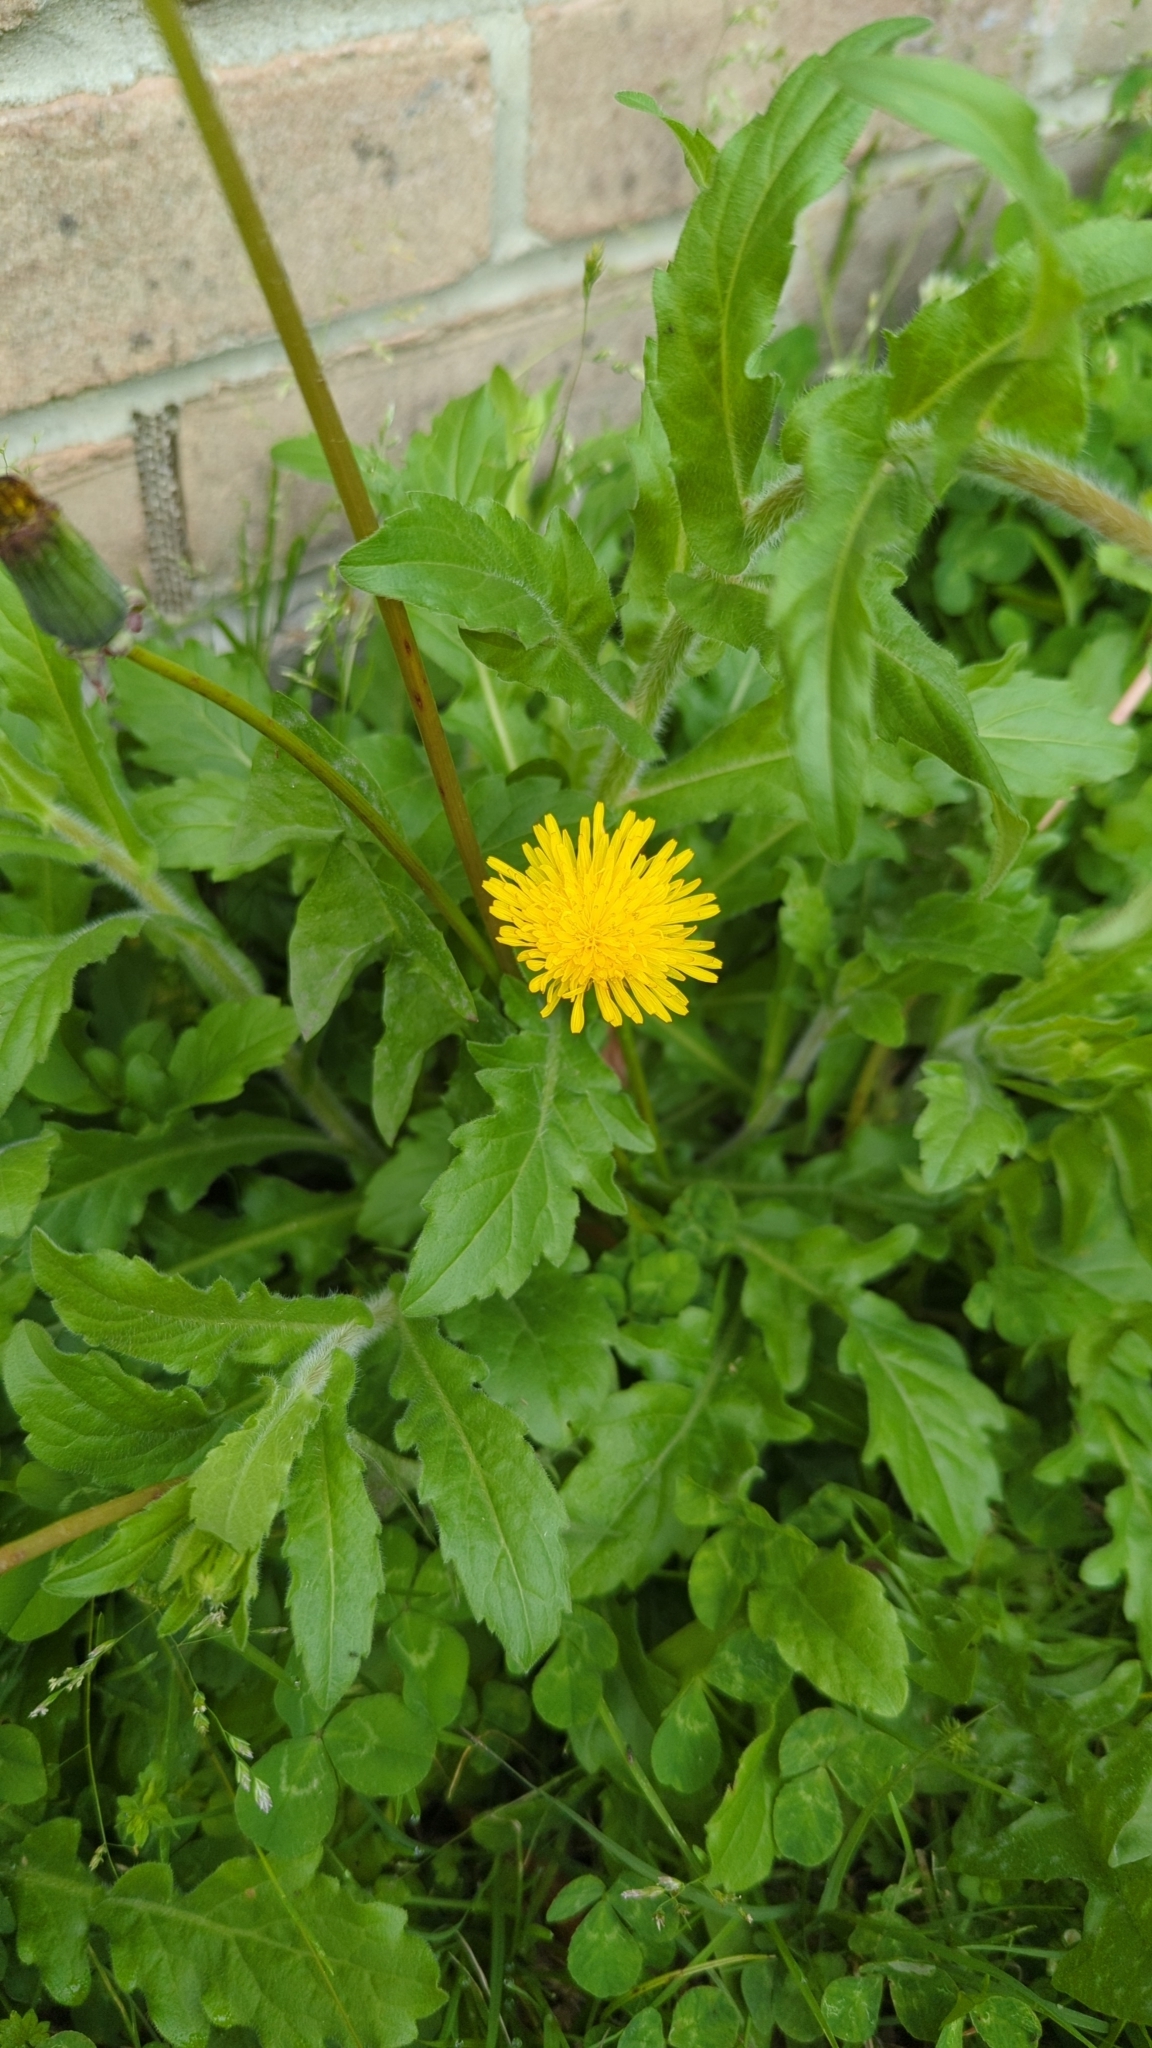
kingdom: Plantae
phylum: Tracheophyta
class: Magnoliopsida
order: Asterales
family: Asteraceae
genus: Taraxacum
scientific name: Taraxacum
